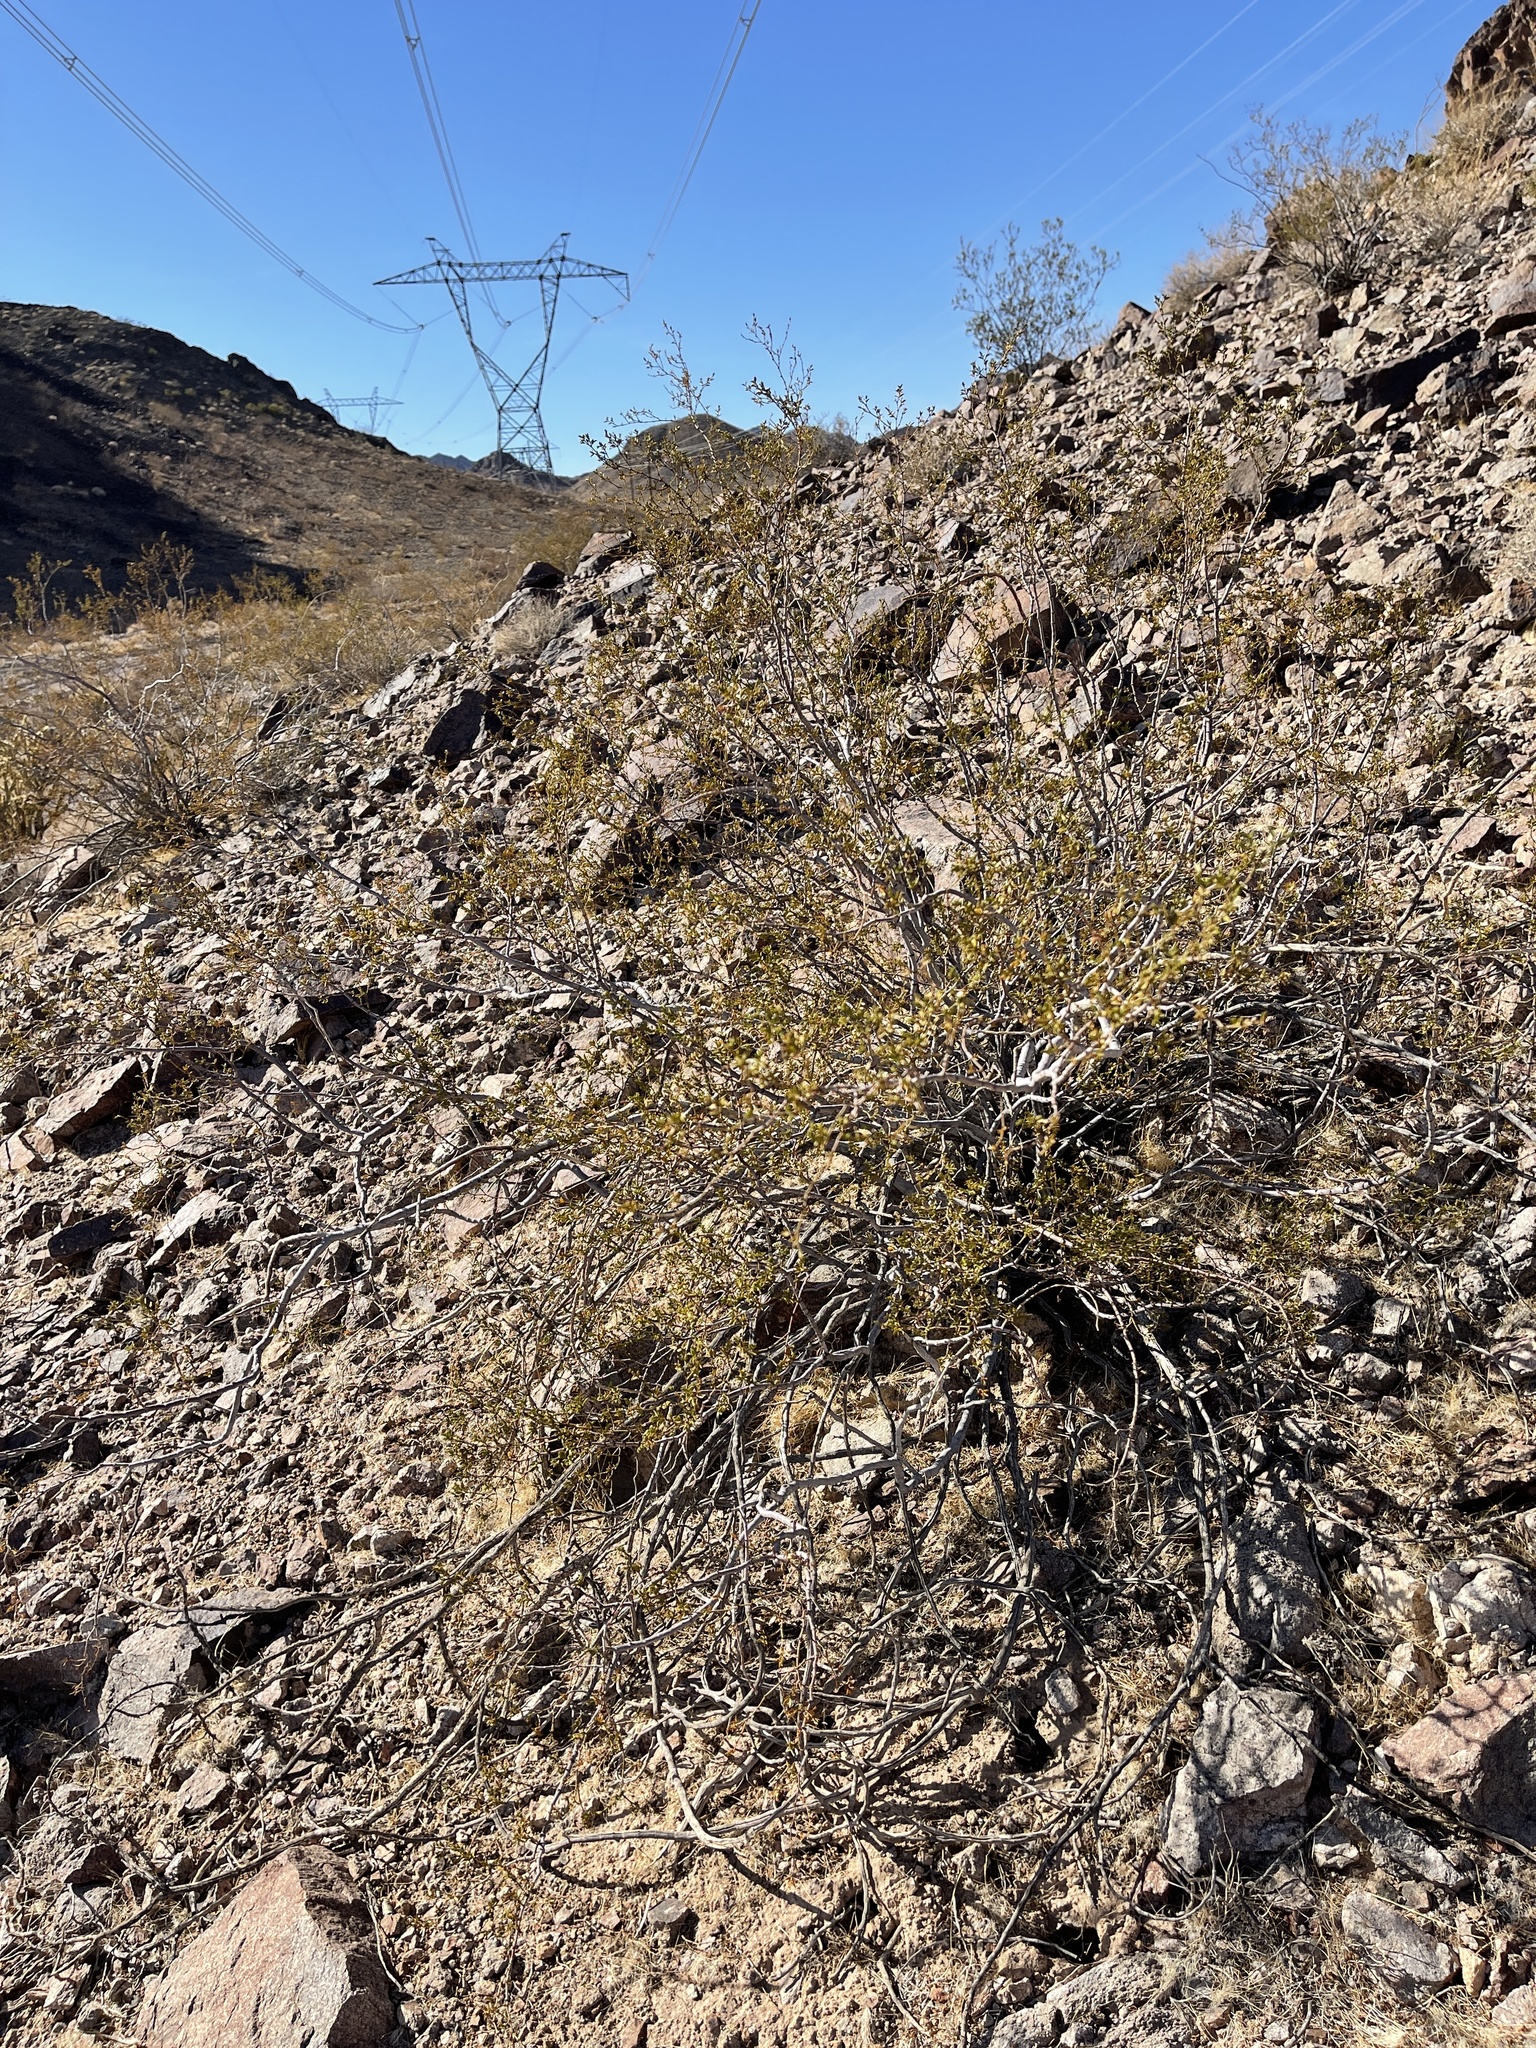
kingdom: Plantae
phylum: Tracheophyta
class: Magnoliopsida
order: Zygophyllales
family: Zygophyllaceae
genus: Larrea
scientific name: Larrea tridentata
